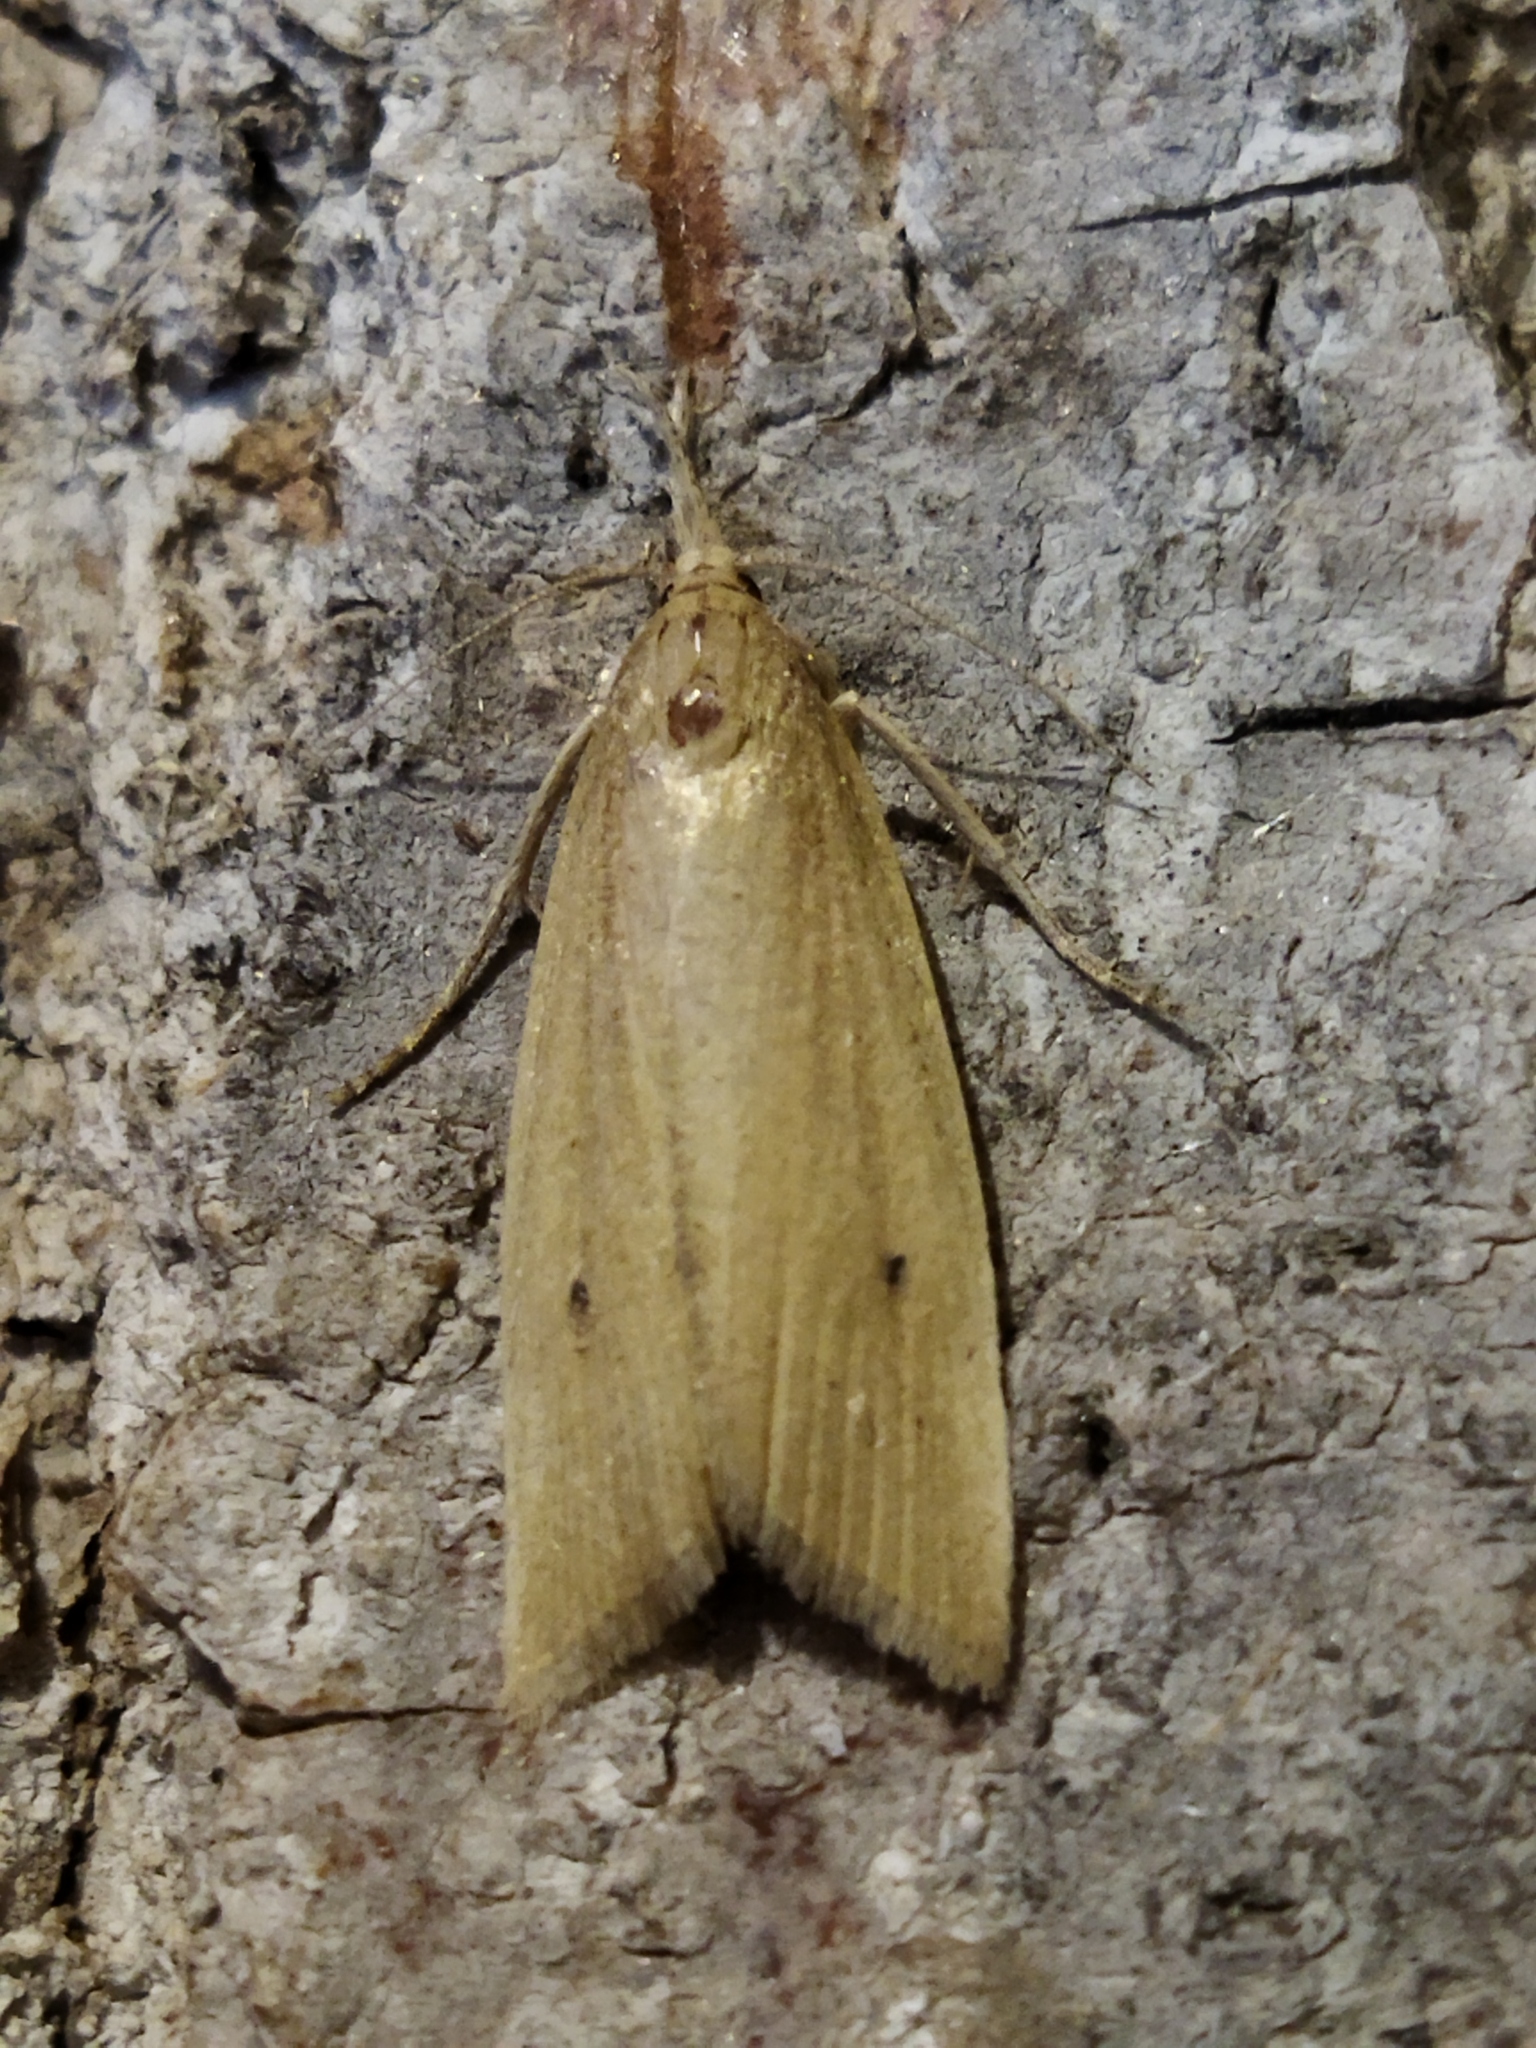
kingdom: Animalia
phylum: Arthropoda
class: Insecta
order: Lepidoptera
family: Crambidae
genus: Chilo
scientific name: Chilo phragmitella
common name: Reed veneer
